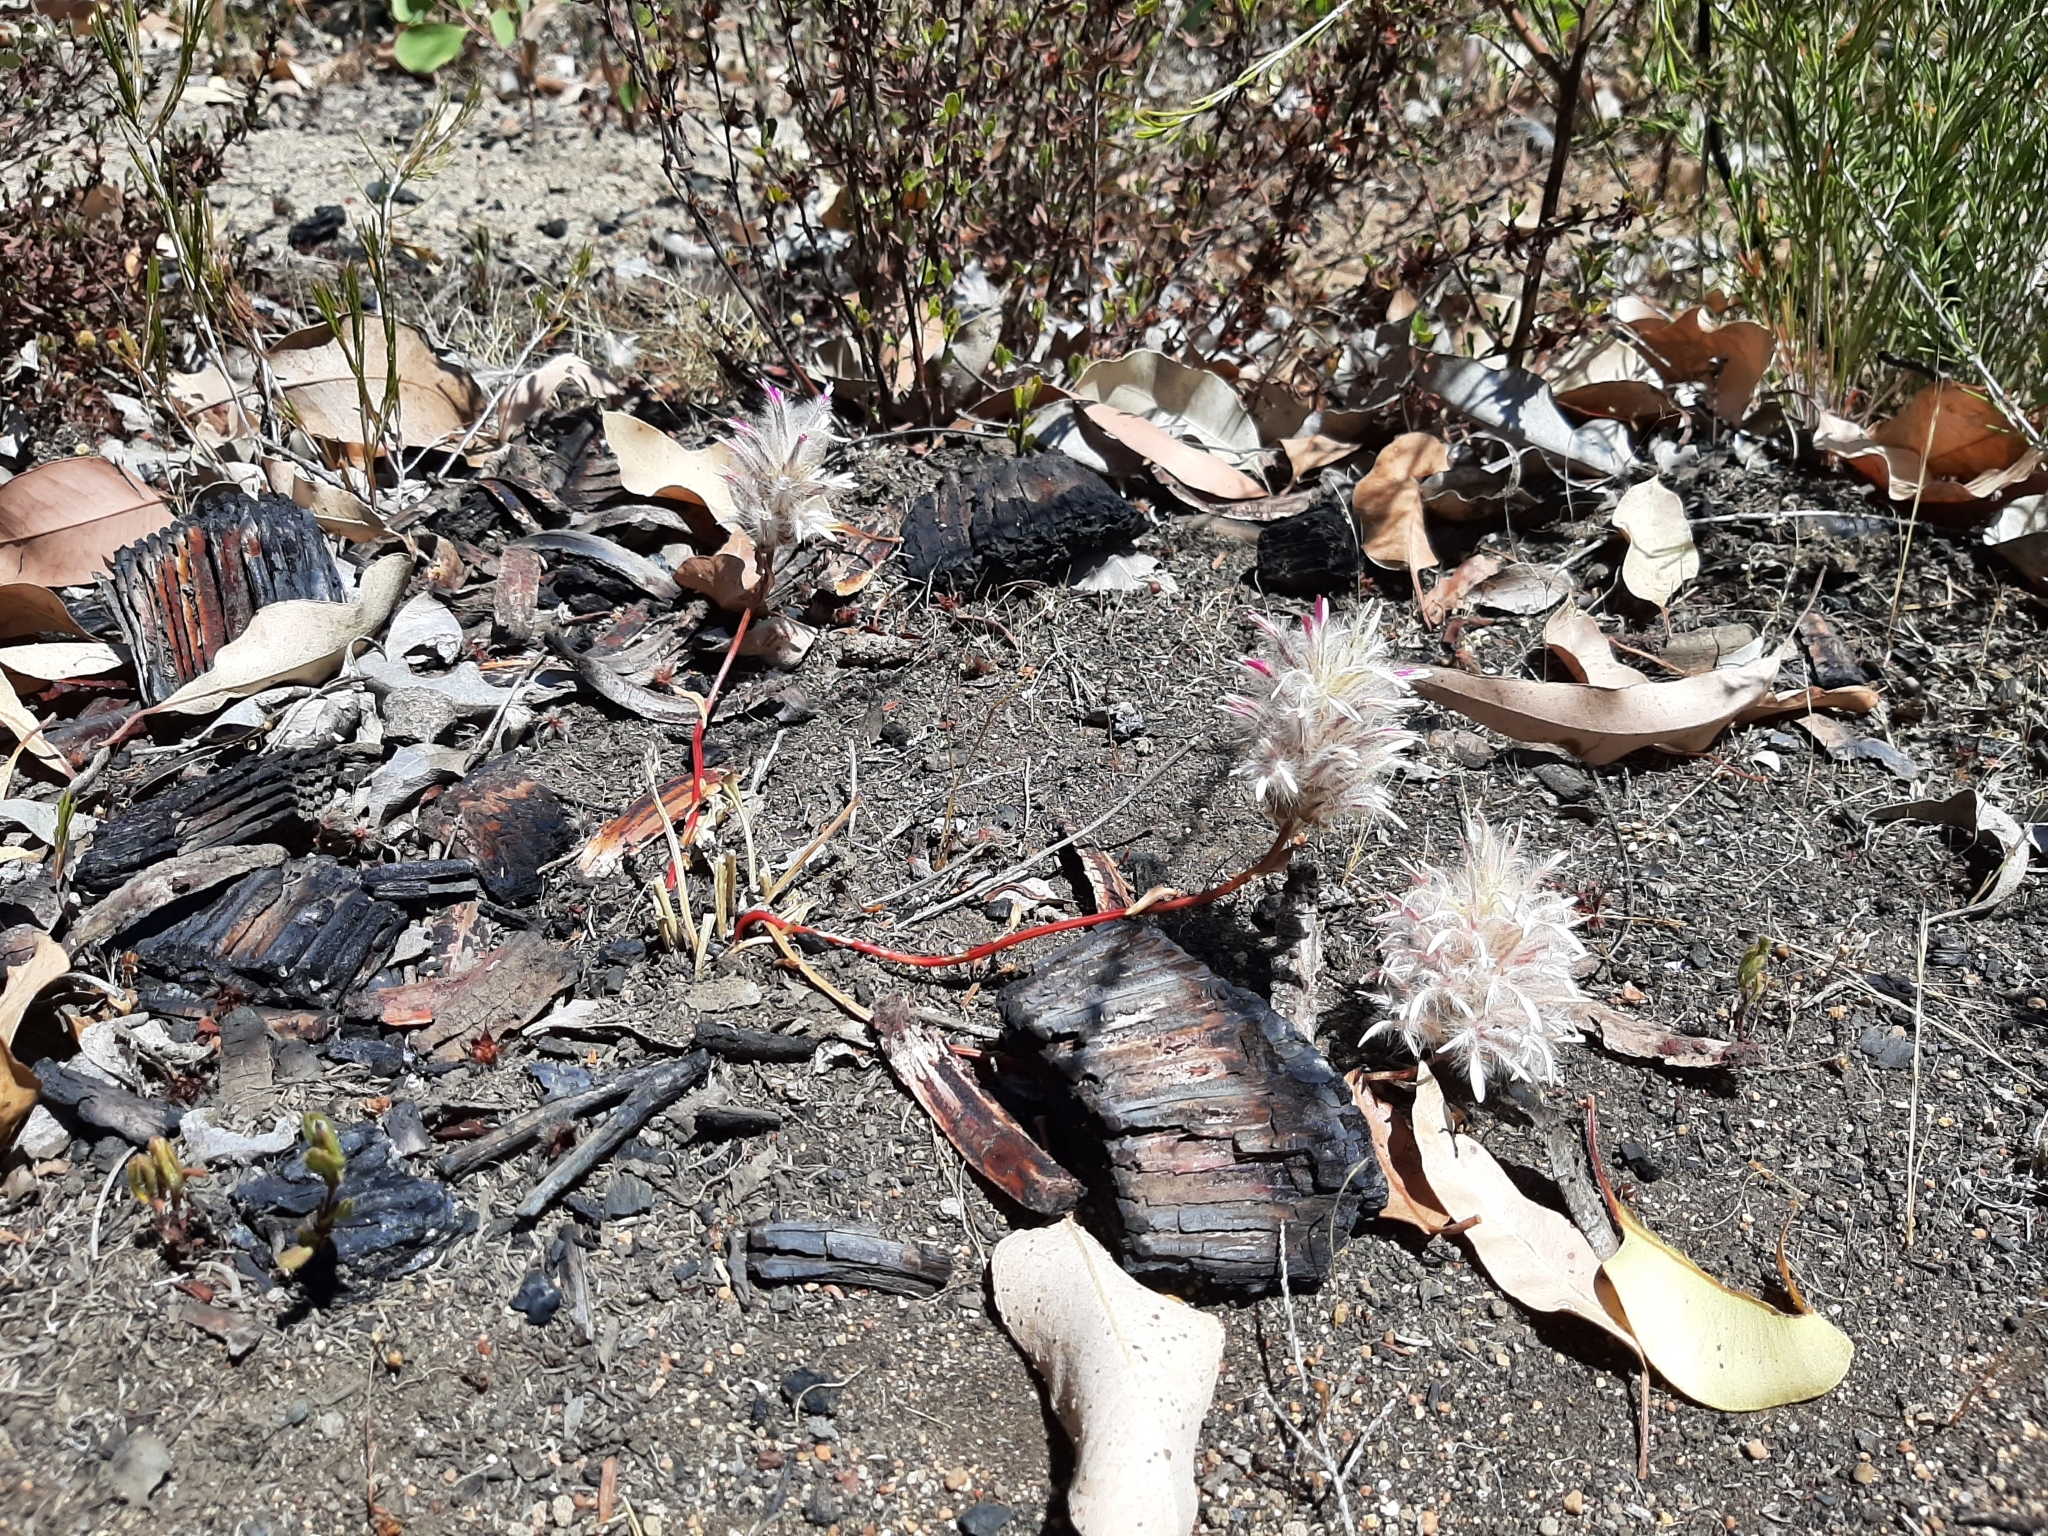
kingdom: Plantae
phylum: Tracheophyta
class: Magnoliopsida
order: Caryophyllales
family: Amaranthaceae
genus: Ptilotus
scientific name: Ptilotus manglesii
